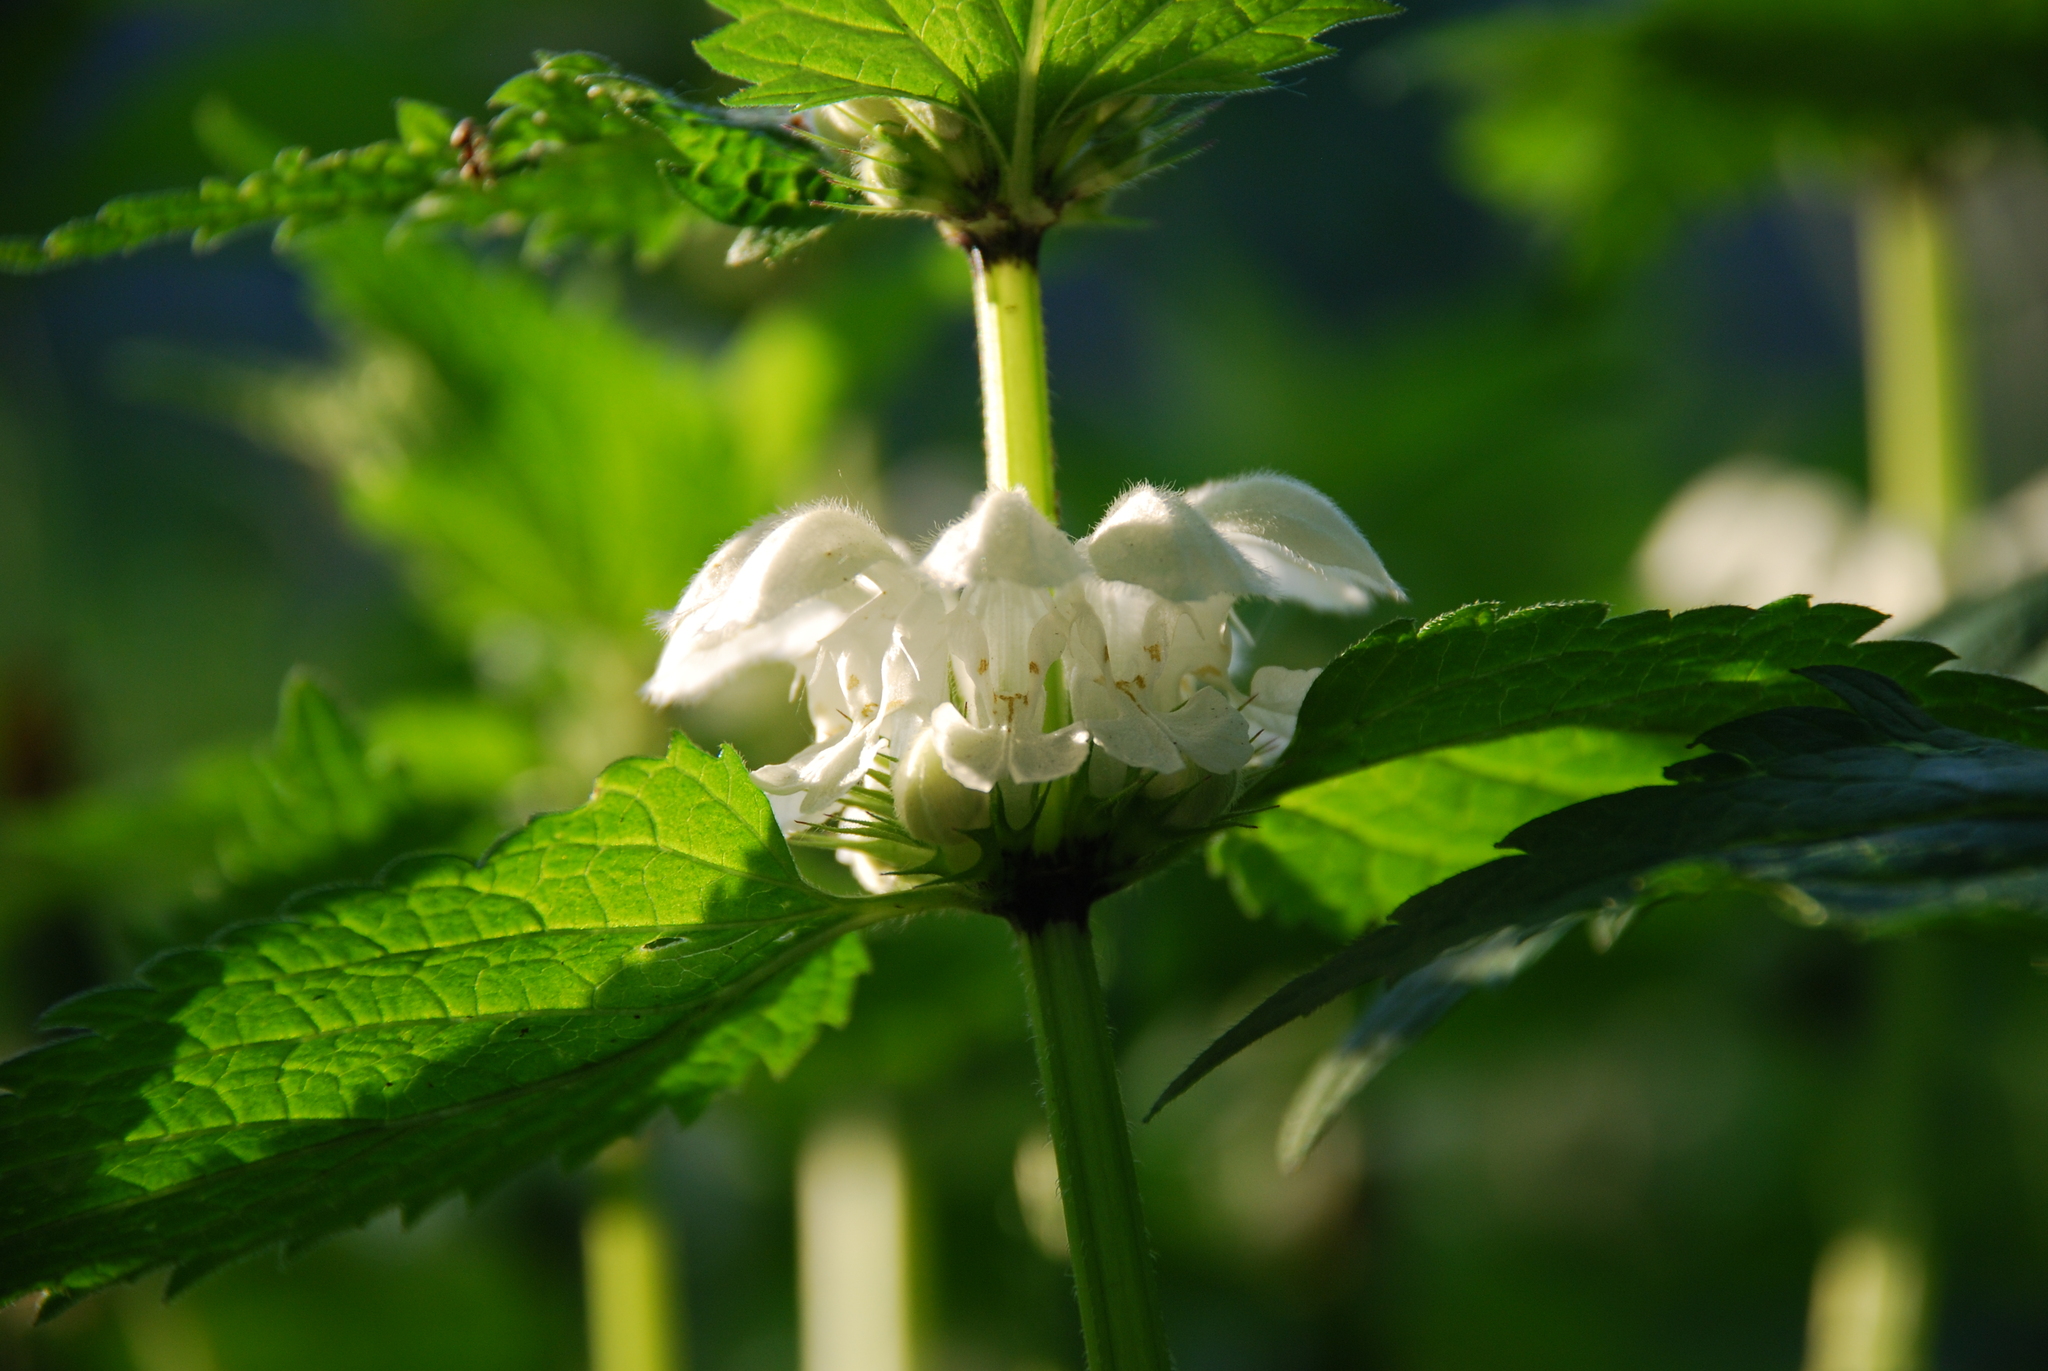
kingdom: Plantae
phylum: Tracheophyta
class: Magnoliopsida
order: Lamiales
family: Lamiaceae
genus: Lamium
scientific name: Lamium album
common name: White dead-nettle
